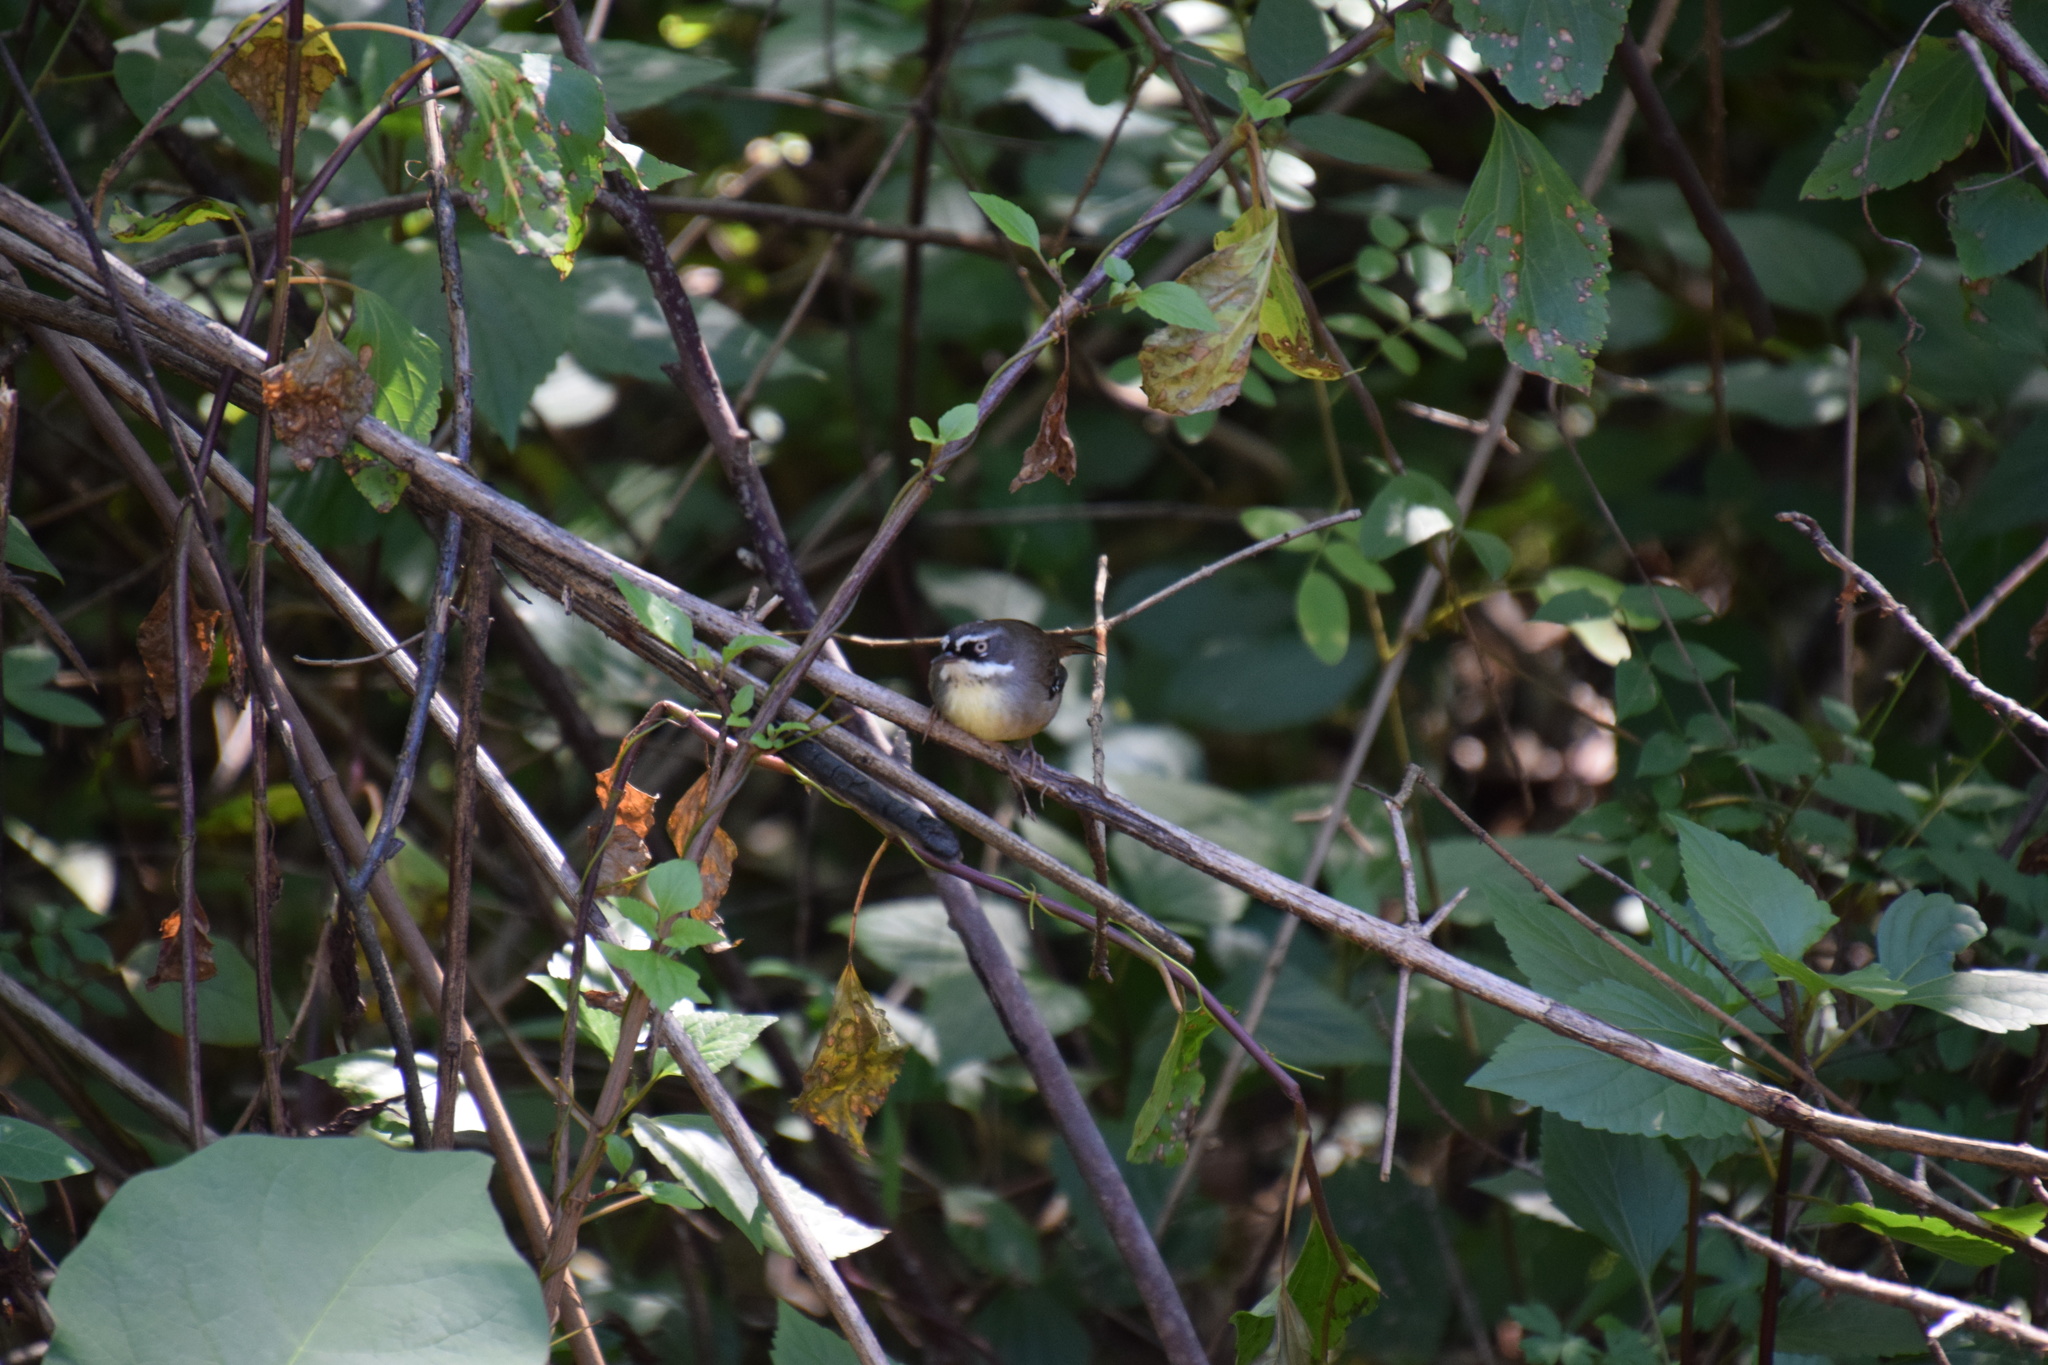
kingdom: Animalia
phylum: Chordata
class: Aves
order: Passeriformes
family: Acanthizidae
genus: Sericornis
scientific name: Sericornis frontalis
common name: White-browed scrubwren
